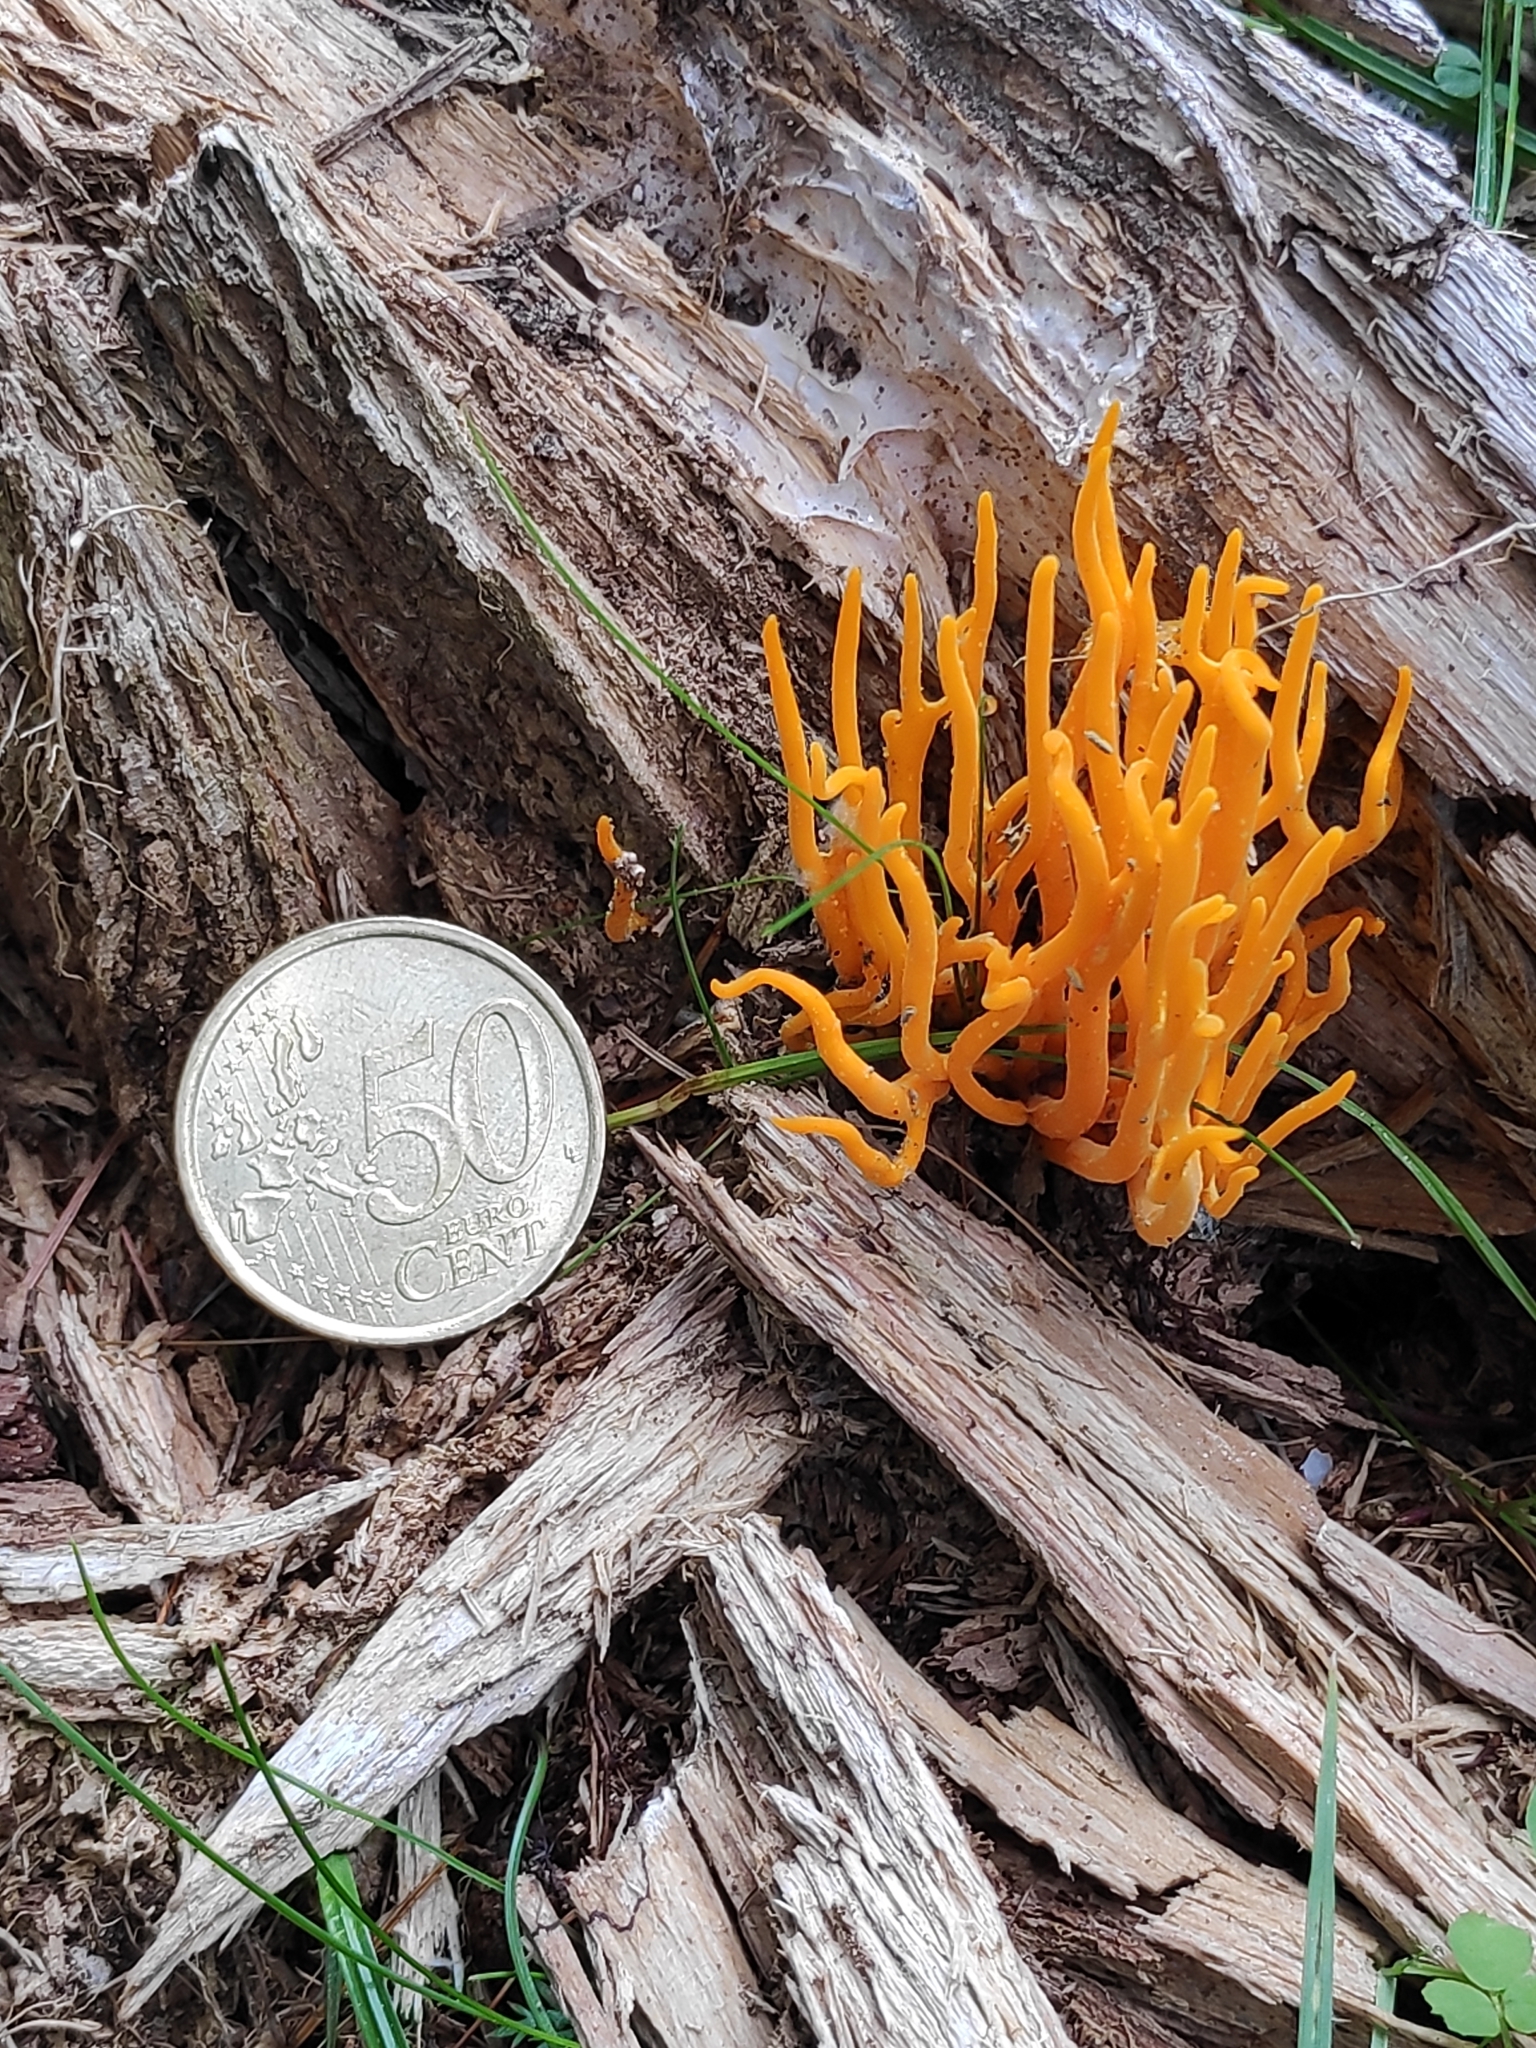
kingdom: Fungi
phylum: Basidiomycota
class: Dacrymycetes
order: Dacrymycetales
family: Dacrymycetaceae
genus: Calocera
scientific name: Calocera viscosa
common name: Yellow stagshorn
